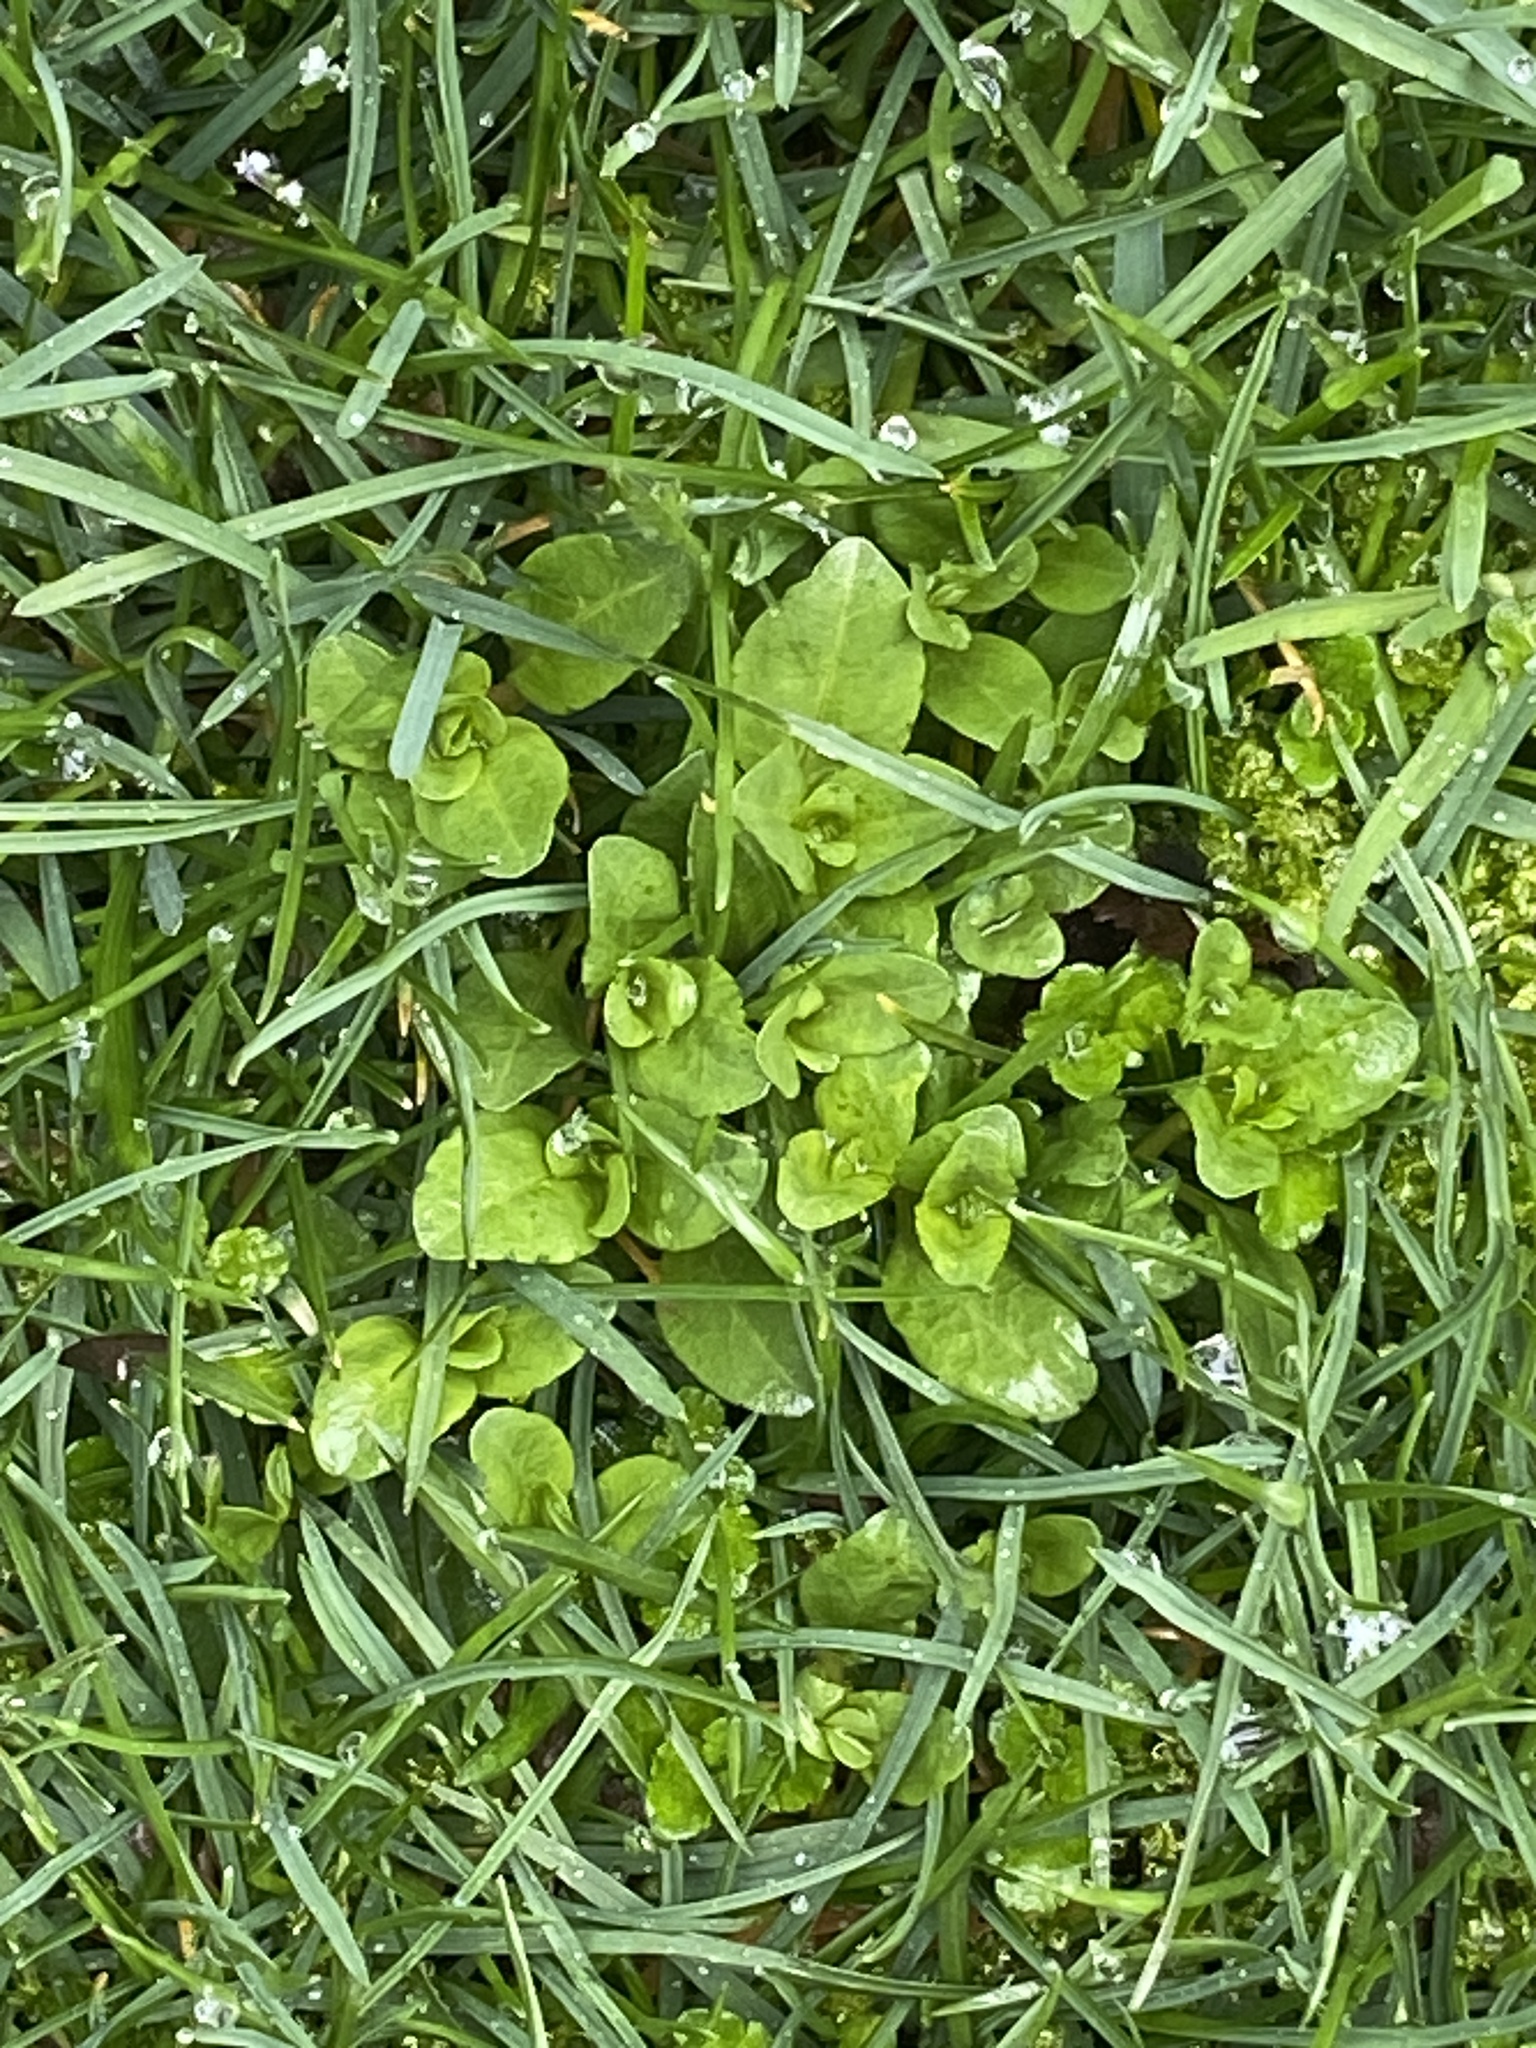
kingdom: Plantae
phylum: Tracheophyta
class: Magnoliopsida
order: Lamiales
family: Plantaginaceae
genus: Veronica
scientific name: Veronica serpyllifolia
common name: Thyme-leaved speedwell
